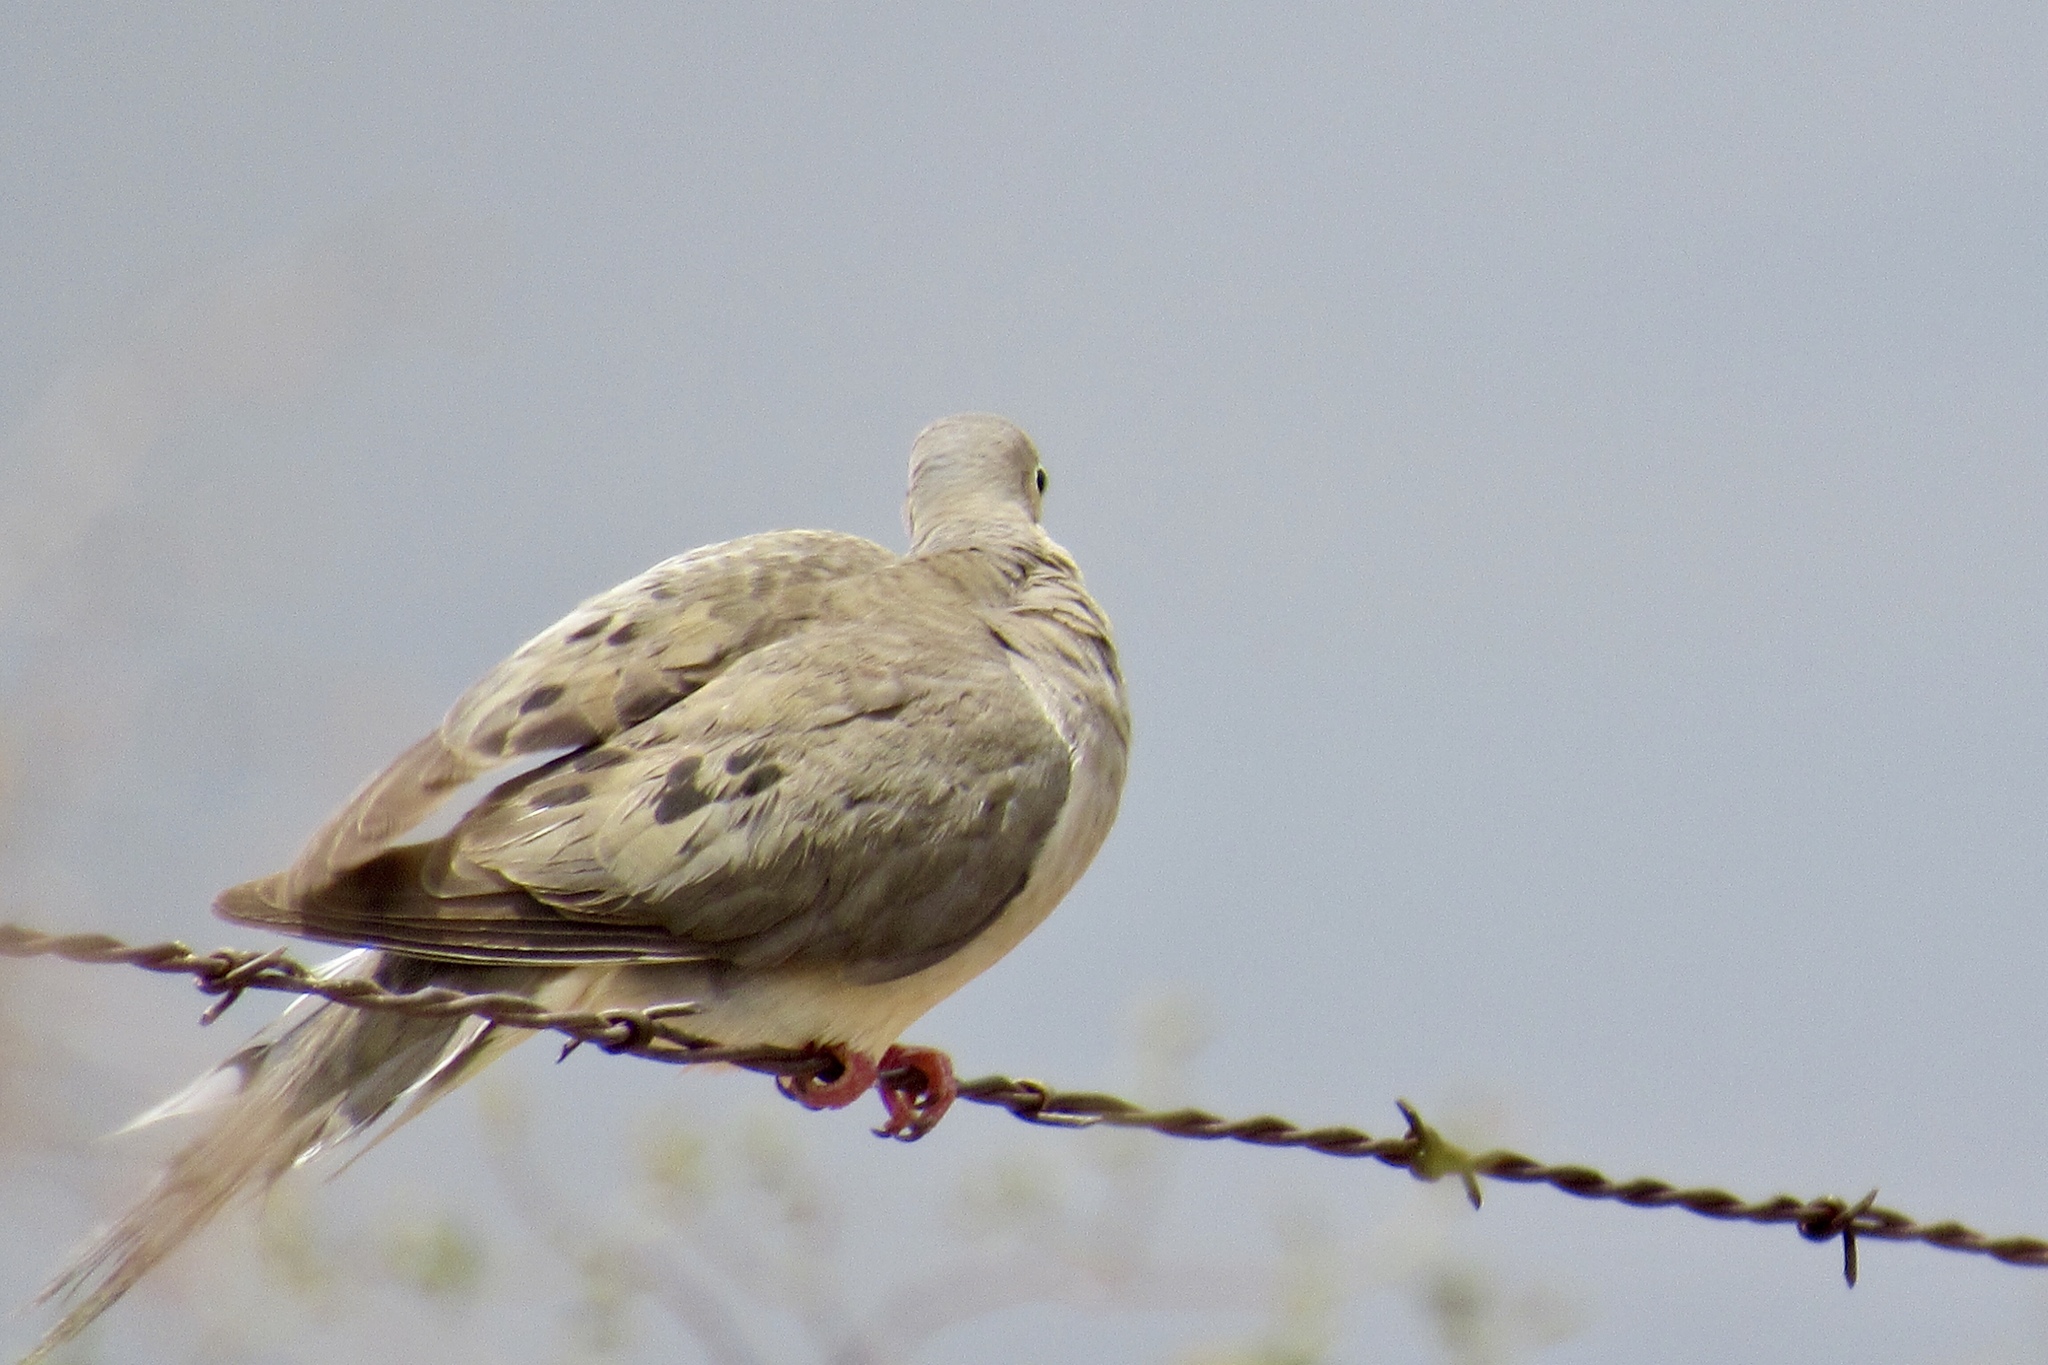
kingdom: Animalia
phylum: Chordata
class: Aves
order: Columbiformes
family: Columbidae
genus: Zenaida
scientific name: Zenaida macroura
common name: Mourning dove
